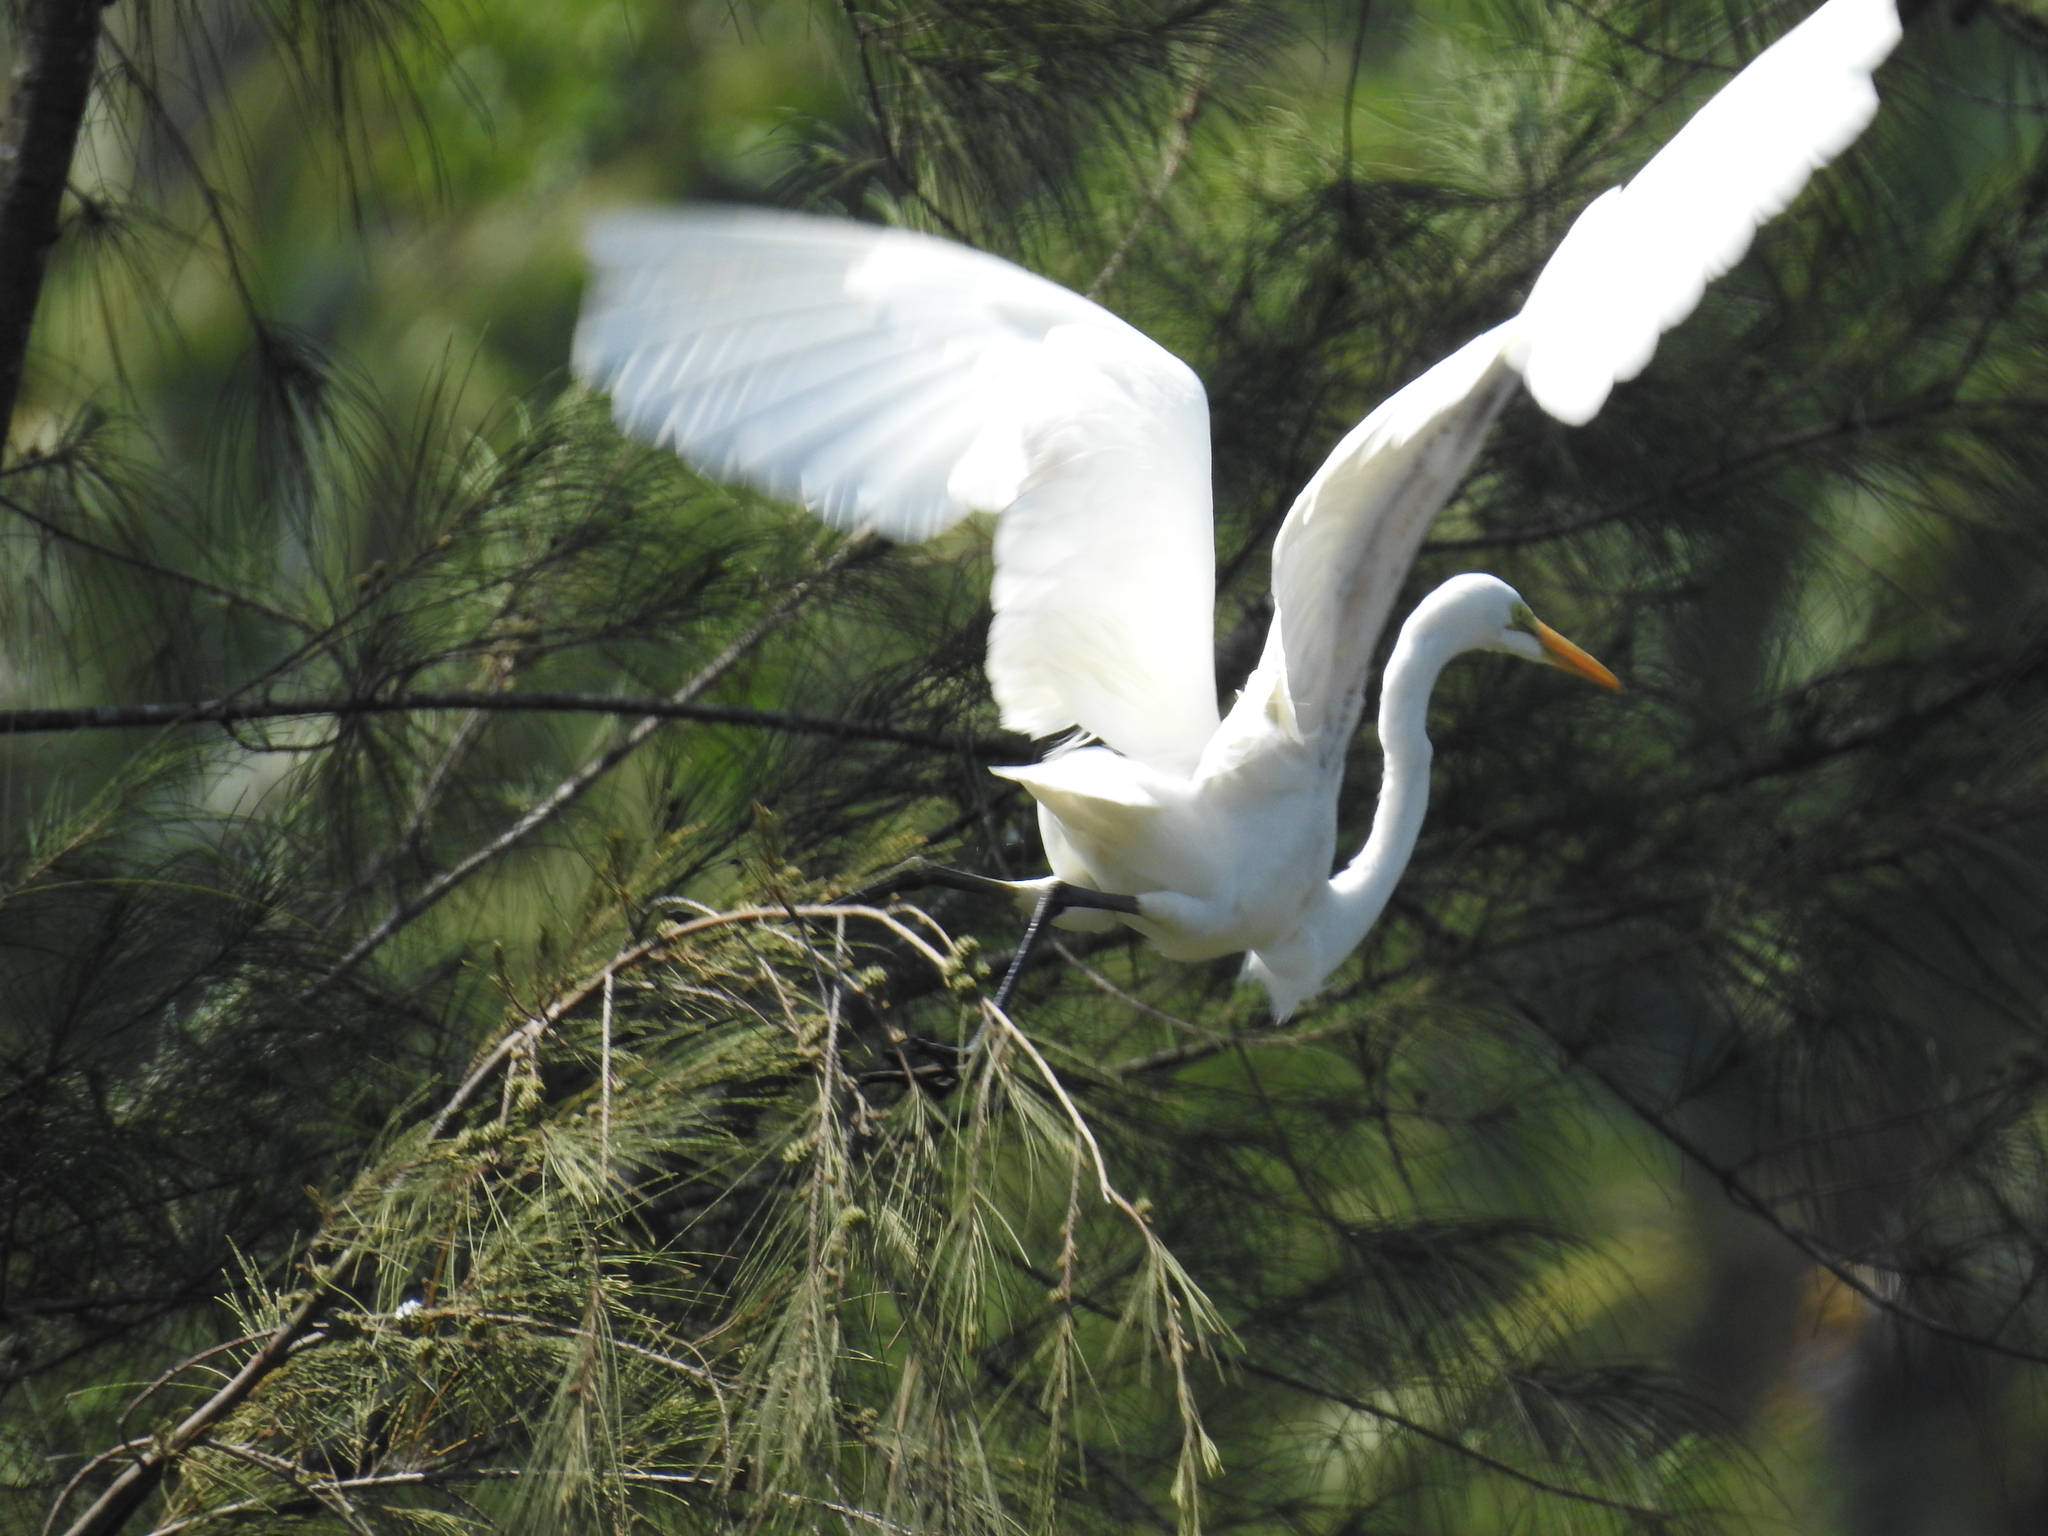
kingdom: Animalia
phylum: Chordata
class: Aves
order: Pelecaniformes
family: Ardeidae
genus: Ardea
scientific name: Ardea alba
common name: Great egret
